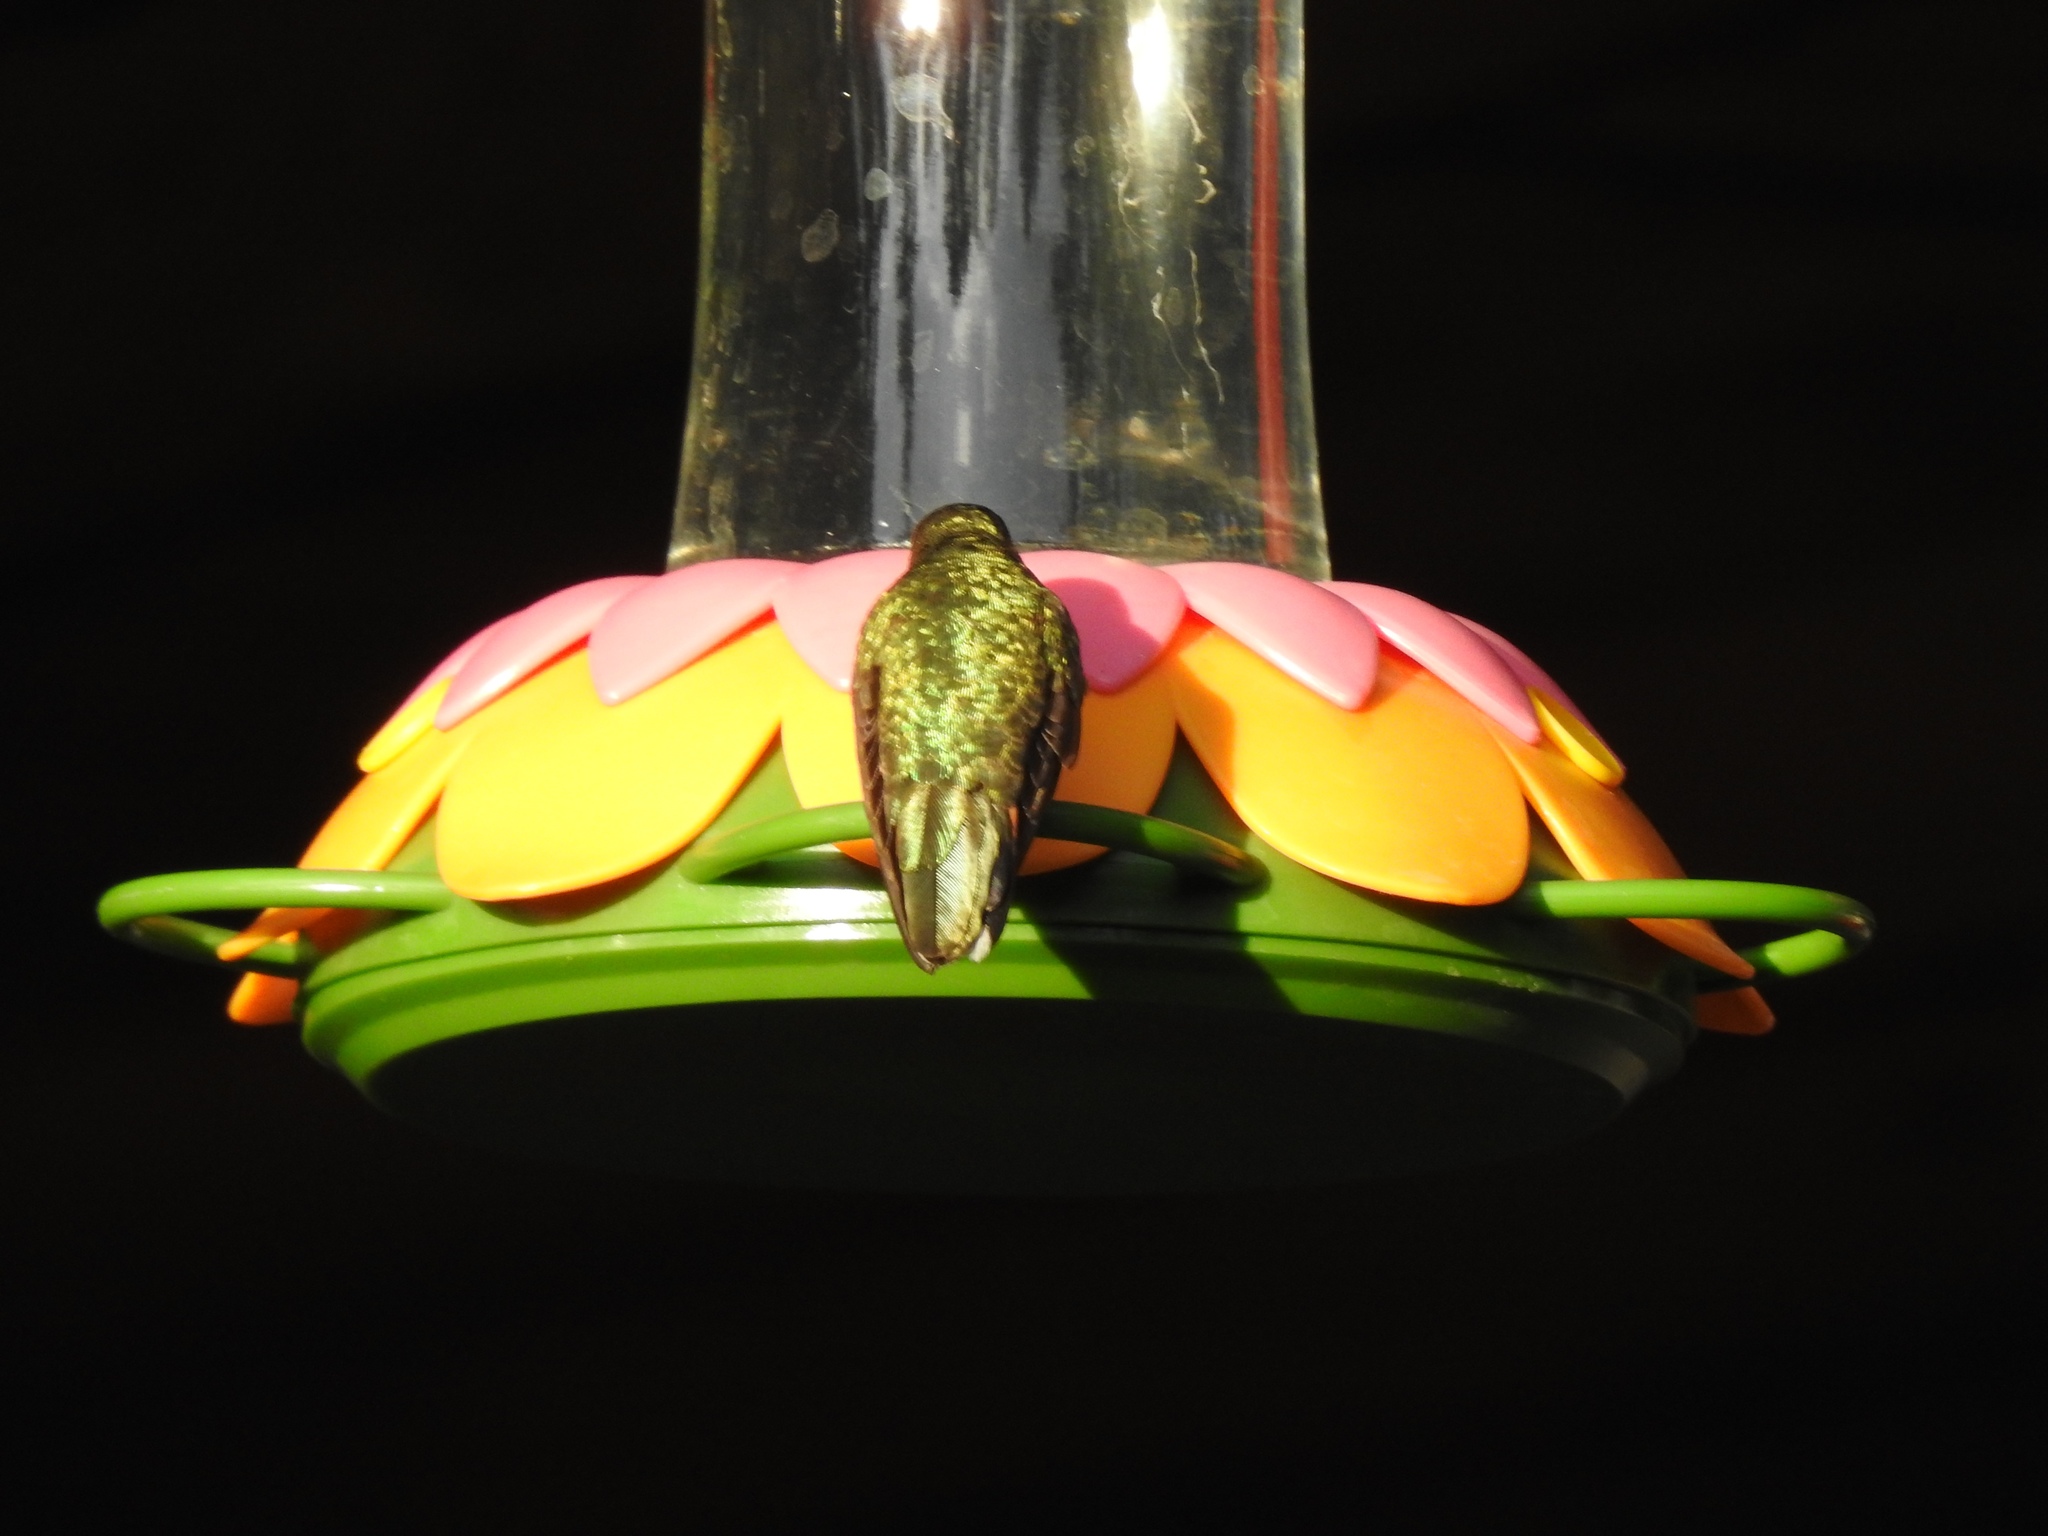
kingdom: Animalia
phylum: Chordata
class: Aves
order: Apodiformes
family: Trochilidae
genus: Selasphorus
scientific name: Selasphorus platycercus
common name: Broad-tailed hummingbird
